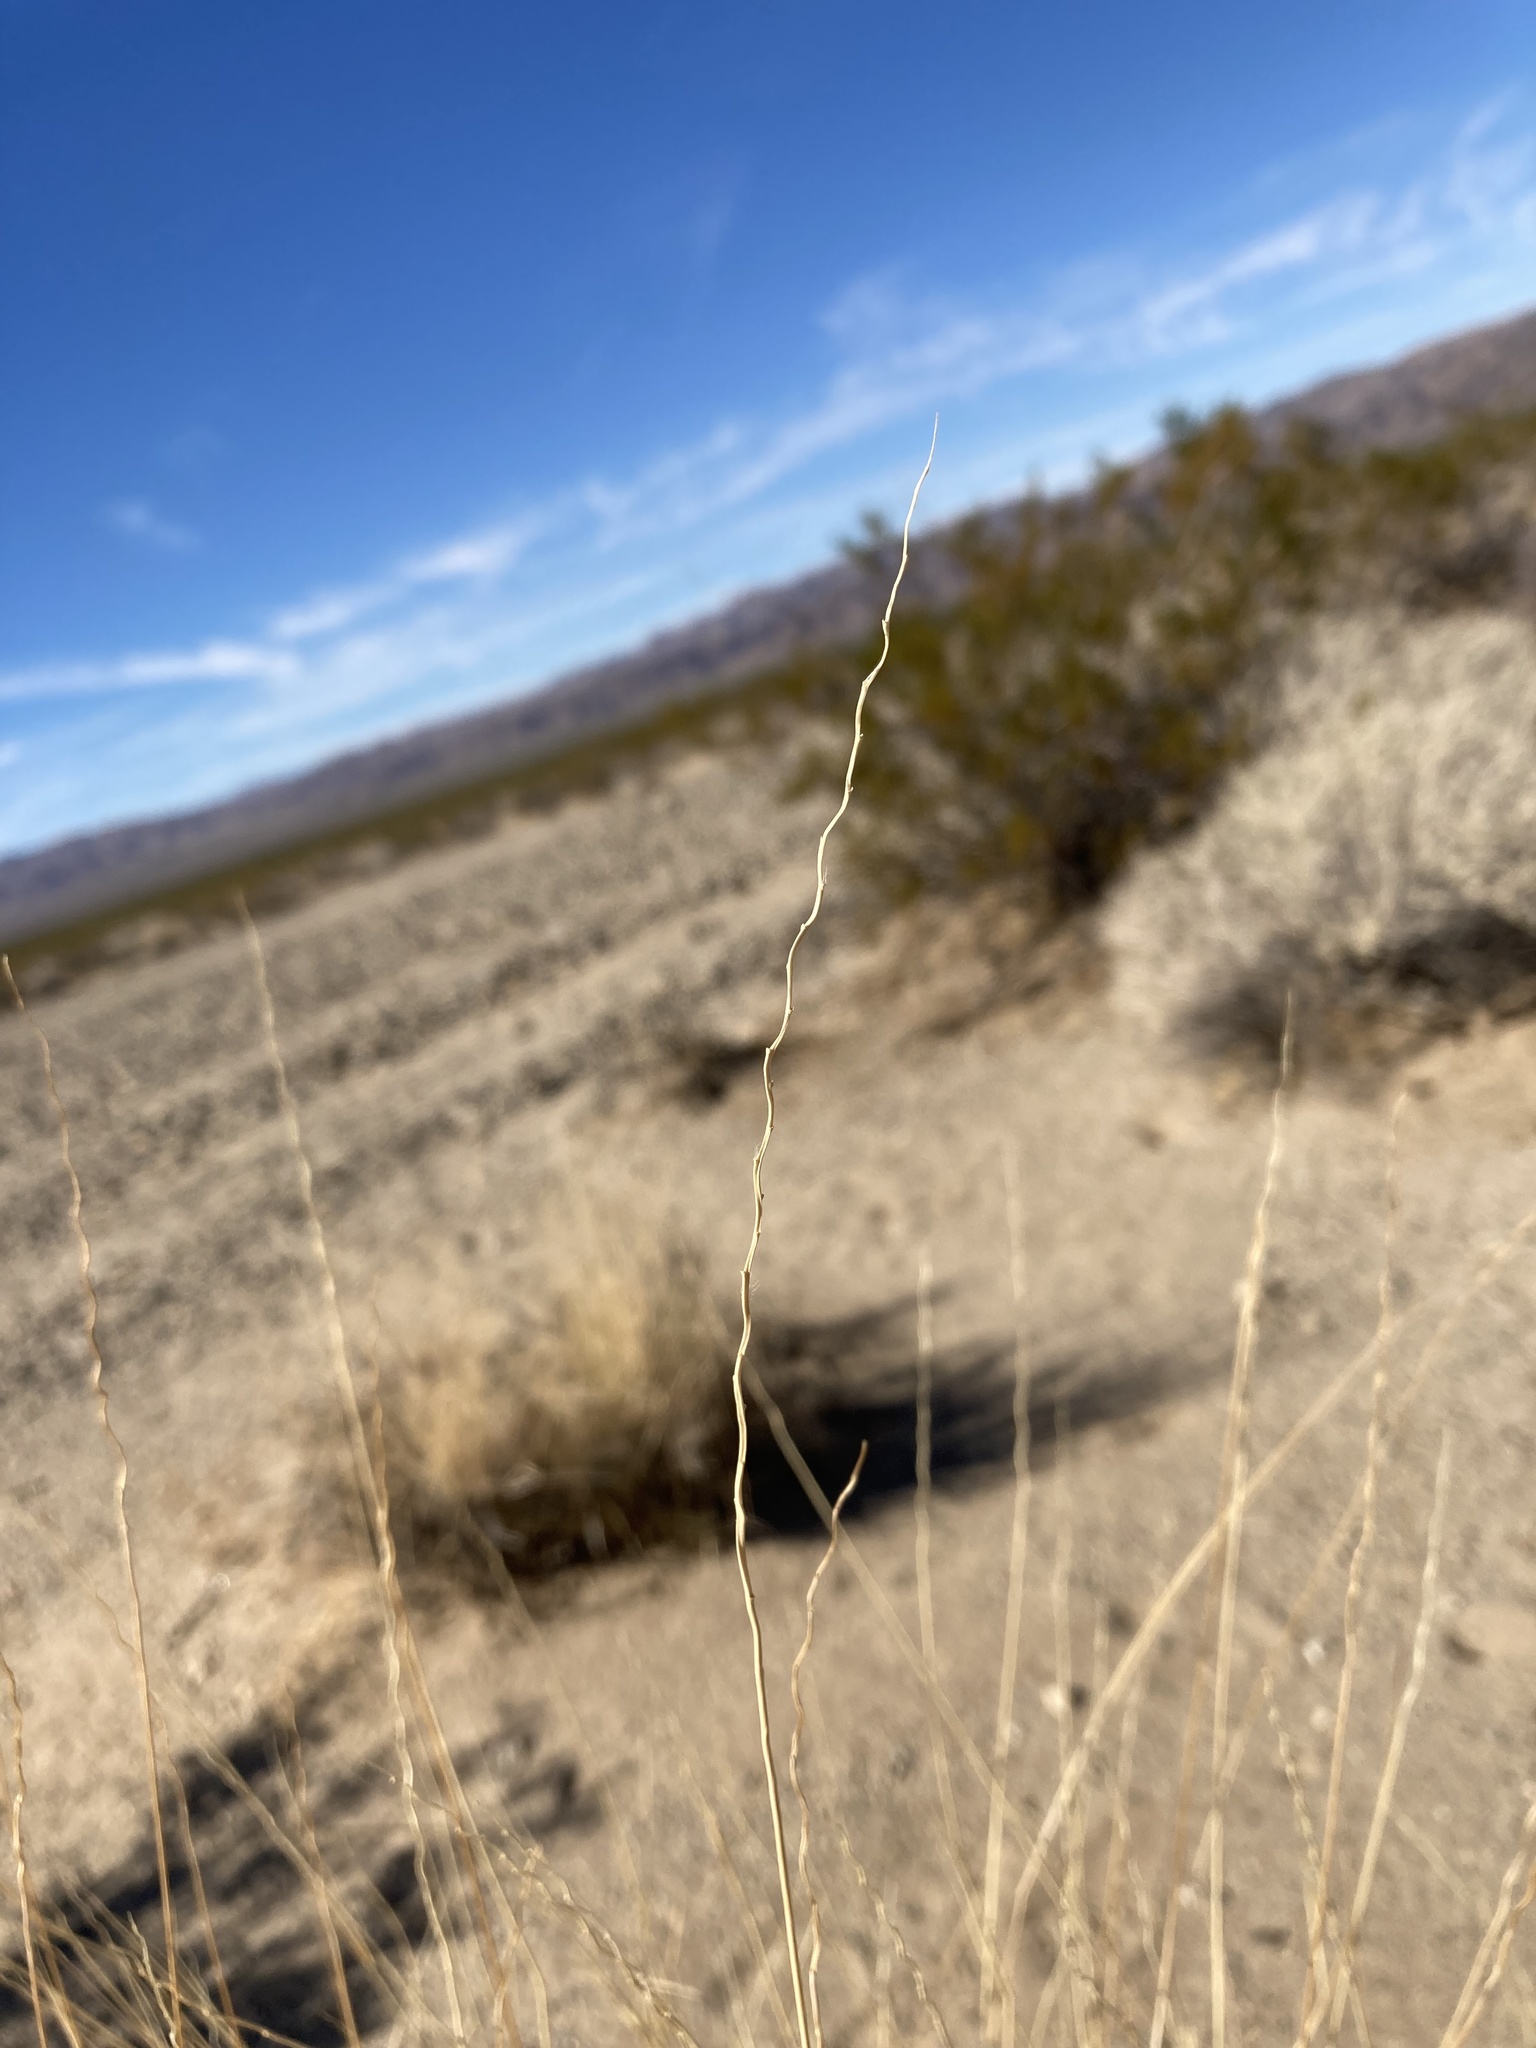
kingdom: Plantae
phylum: Tracheophyta
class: Liliopsida
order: Poales
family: Poaceae
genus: Hilaria
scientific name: Hilaria rigida
